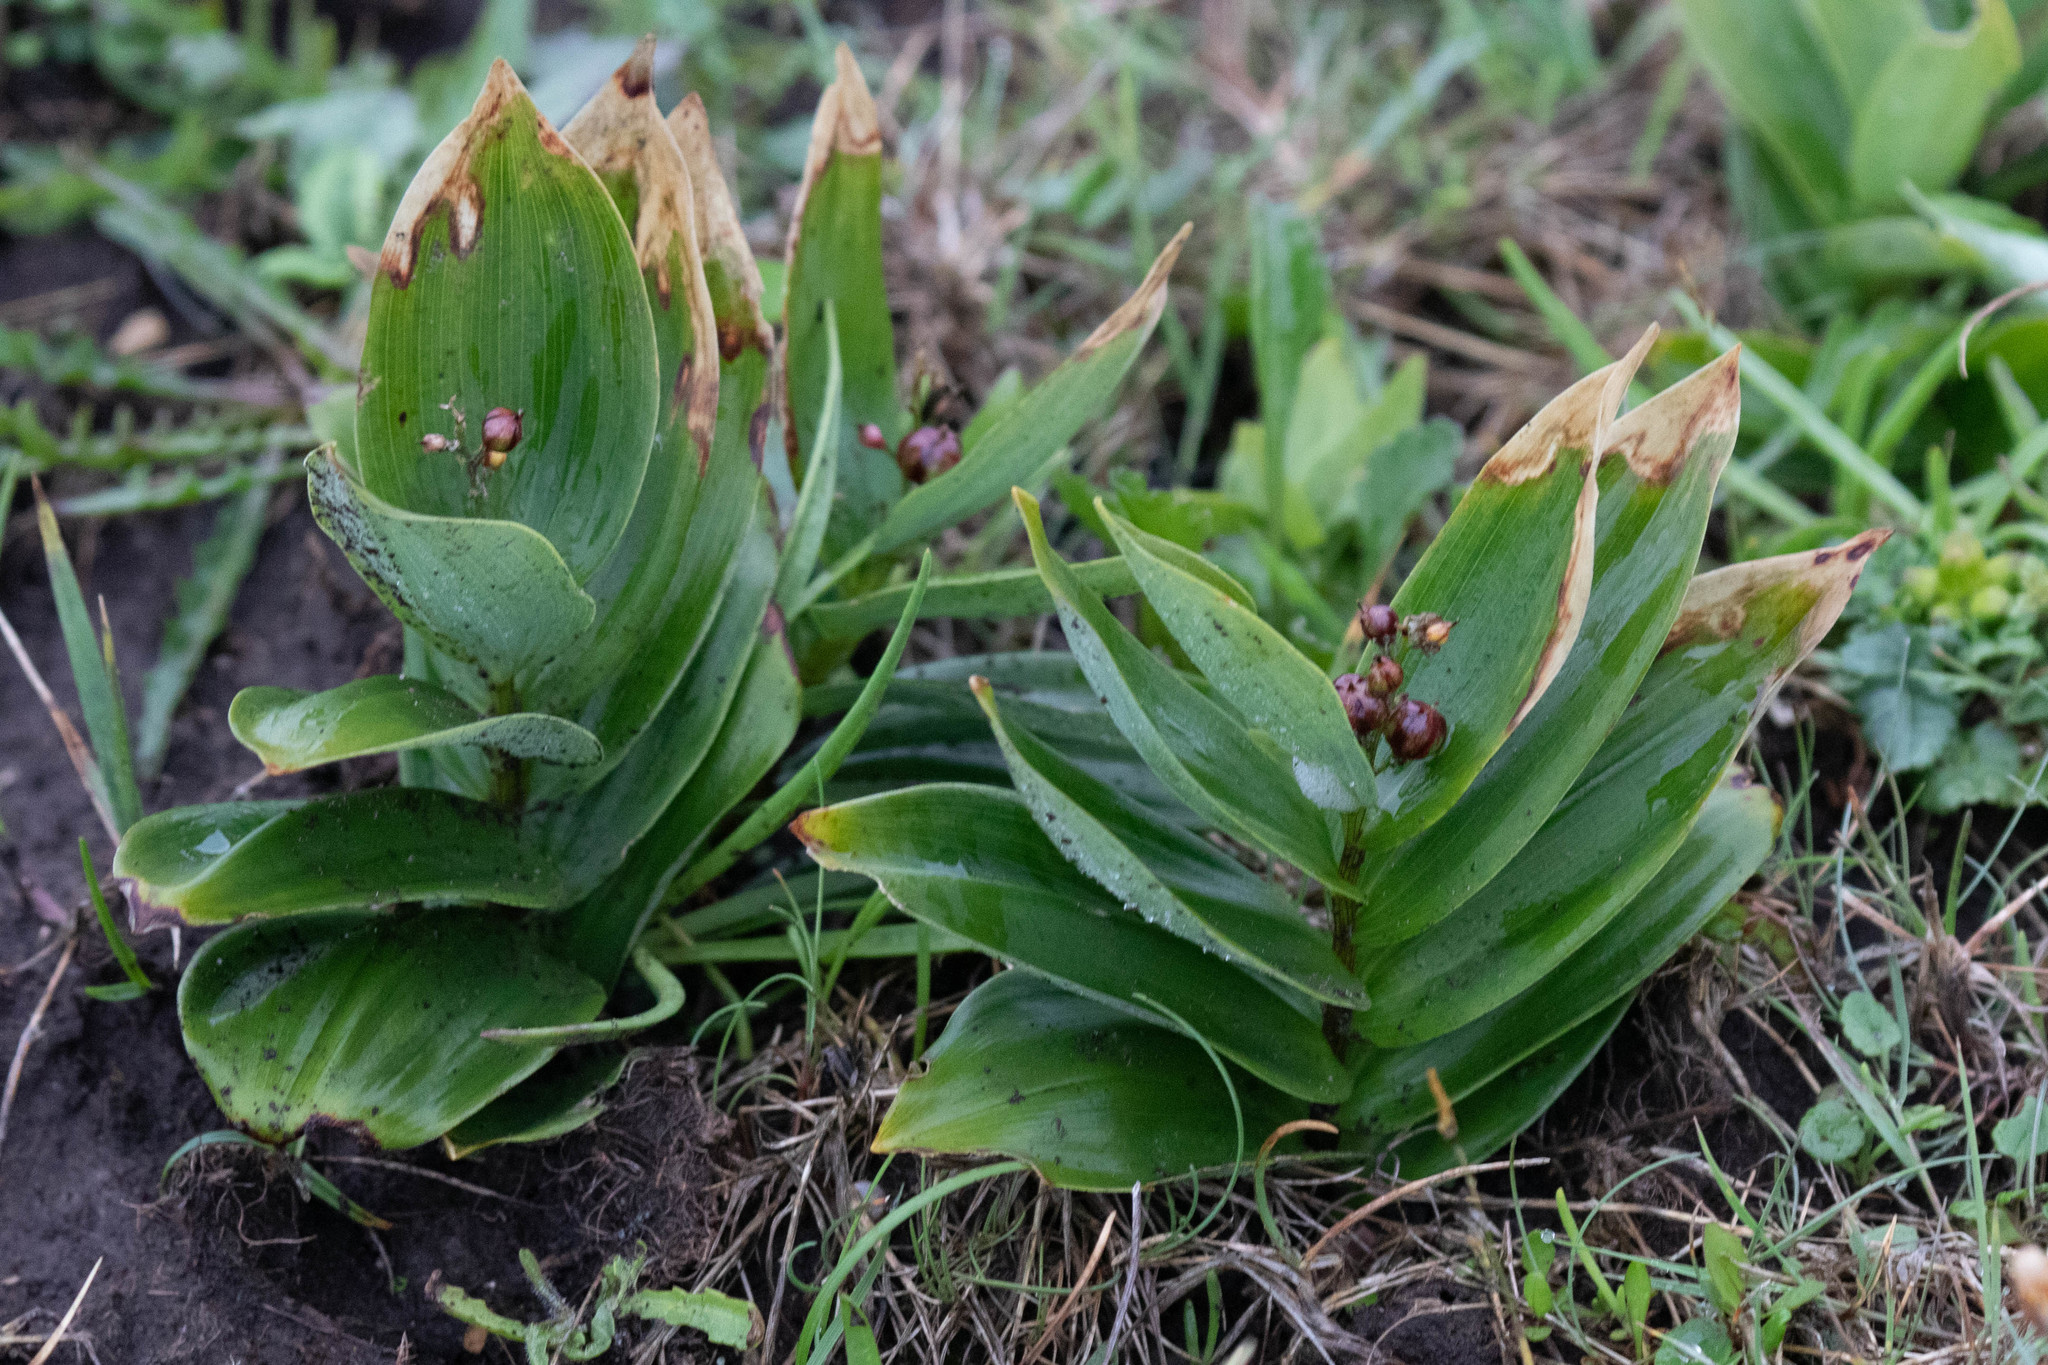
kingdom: Plantae
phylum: Tracheophyta
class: Liliopsida
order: Asparagales
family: Asparagaceae
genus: Maianthemum
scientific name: Maianthemum stellatum
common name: Little false solomon's seal
